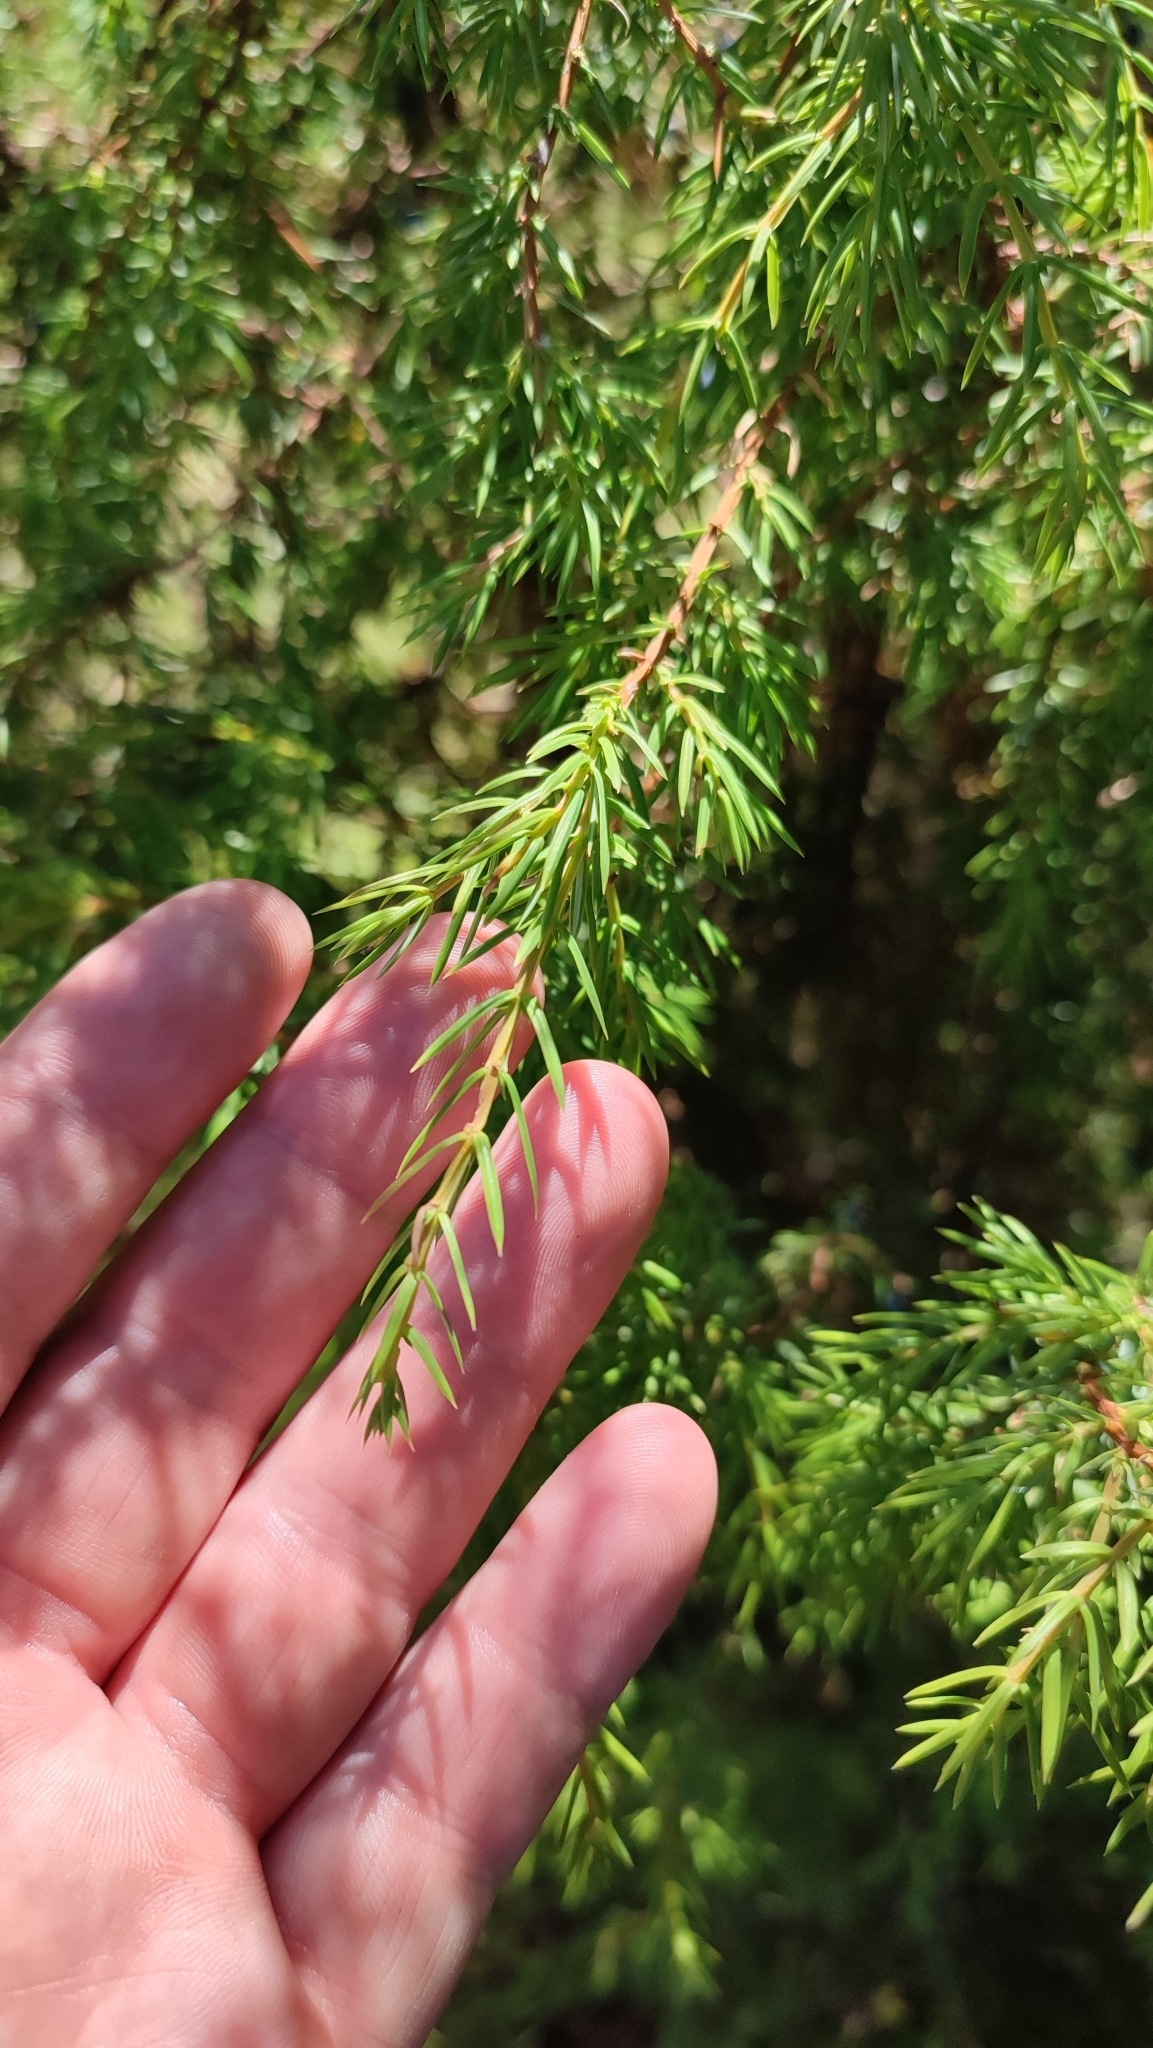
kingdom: Plantae
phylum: Tracheophyta
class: Pinopsida
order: Pinales
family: Cupressaceae
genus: Juniperus
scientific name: Juniperus communis
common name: Common juniper
